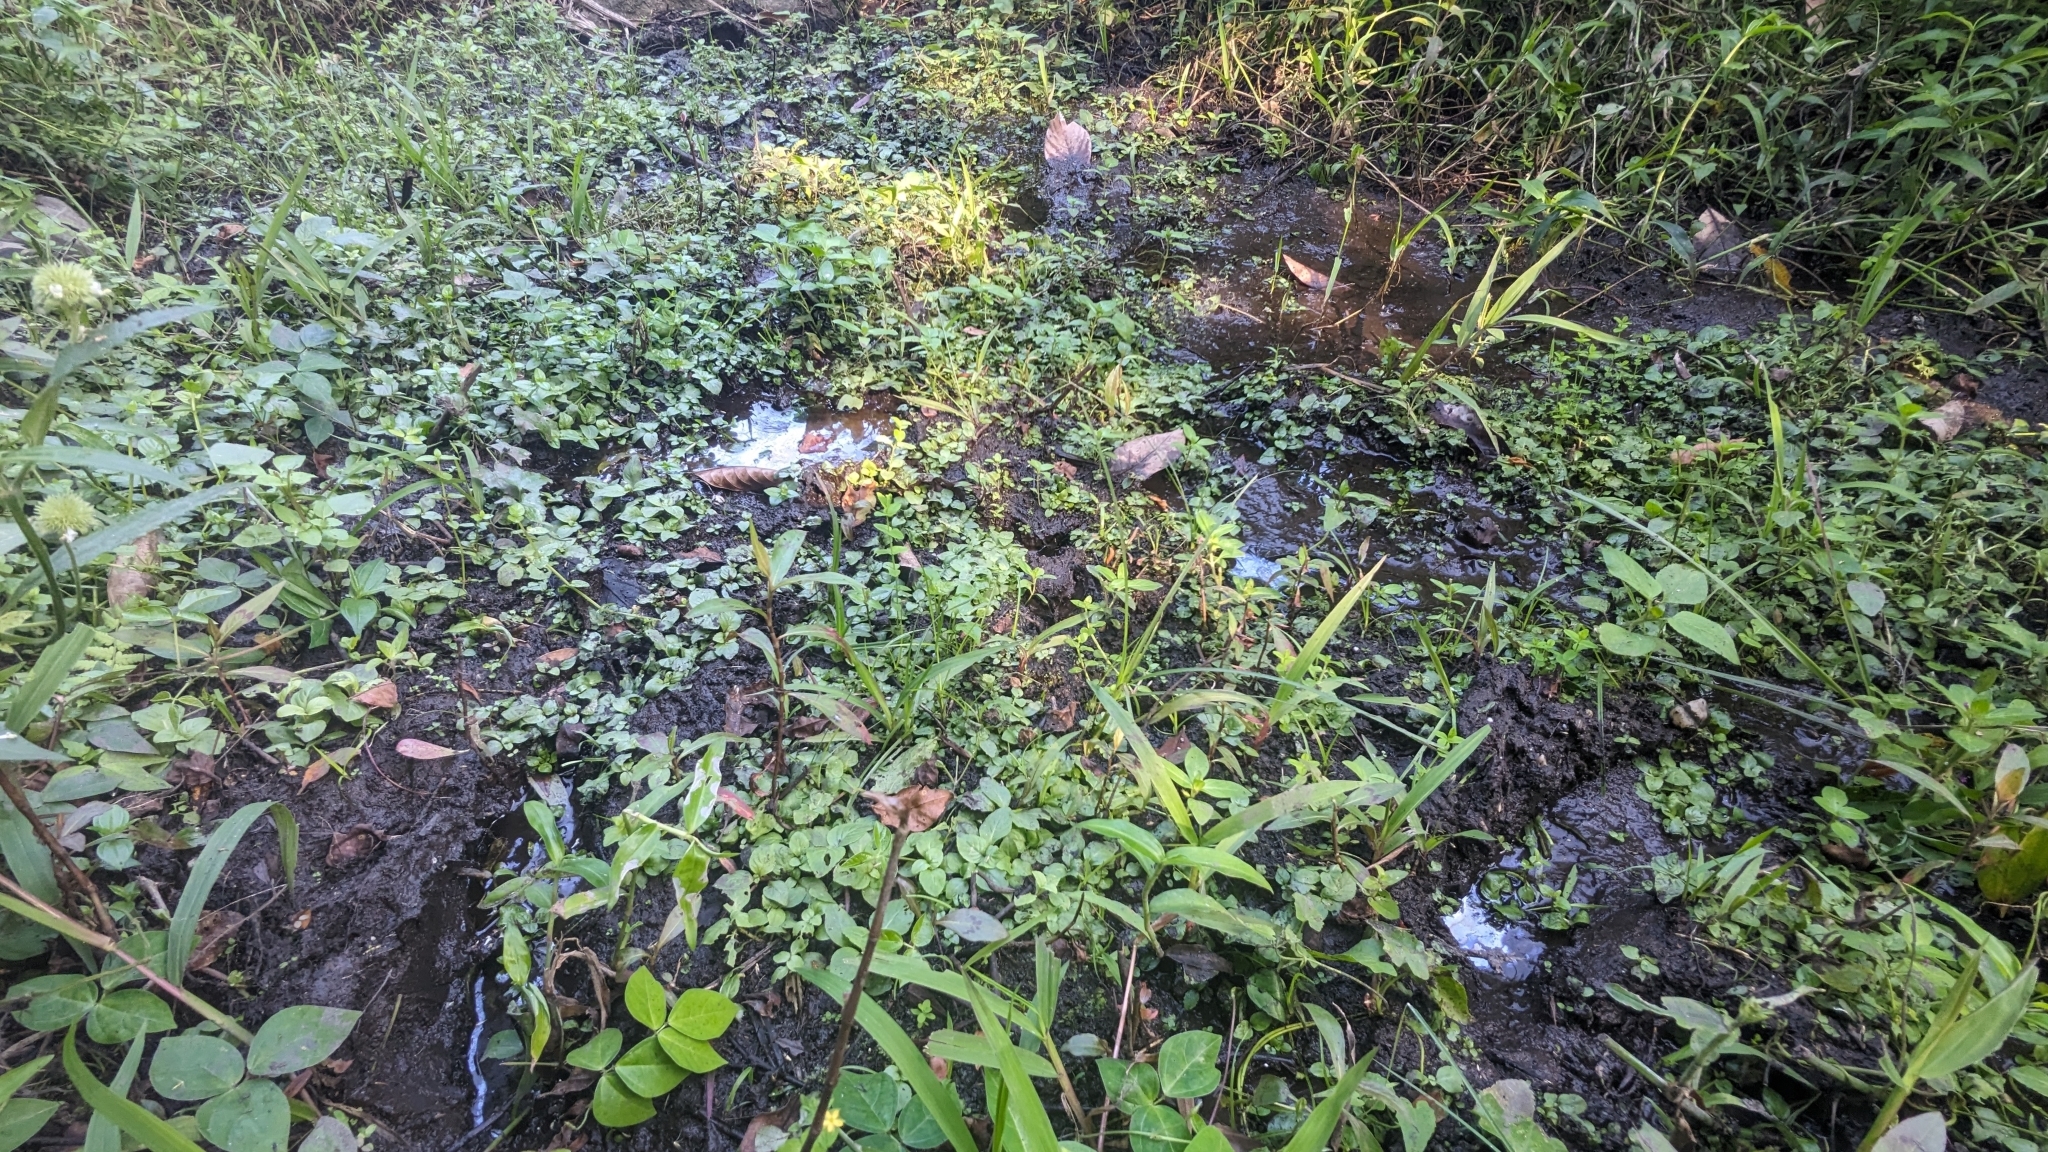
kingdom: Plantae
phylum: Tracheophyta
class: Magnoliopsida
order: Lamiales
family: Plantaginaceae
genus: Limnophila
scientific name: Limnophila rugosa
